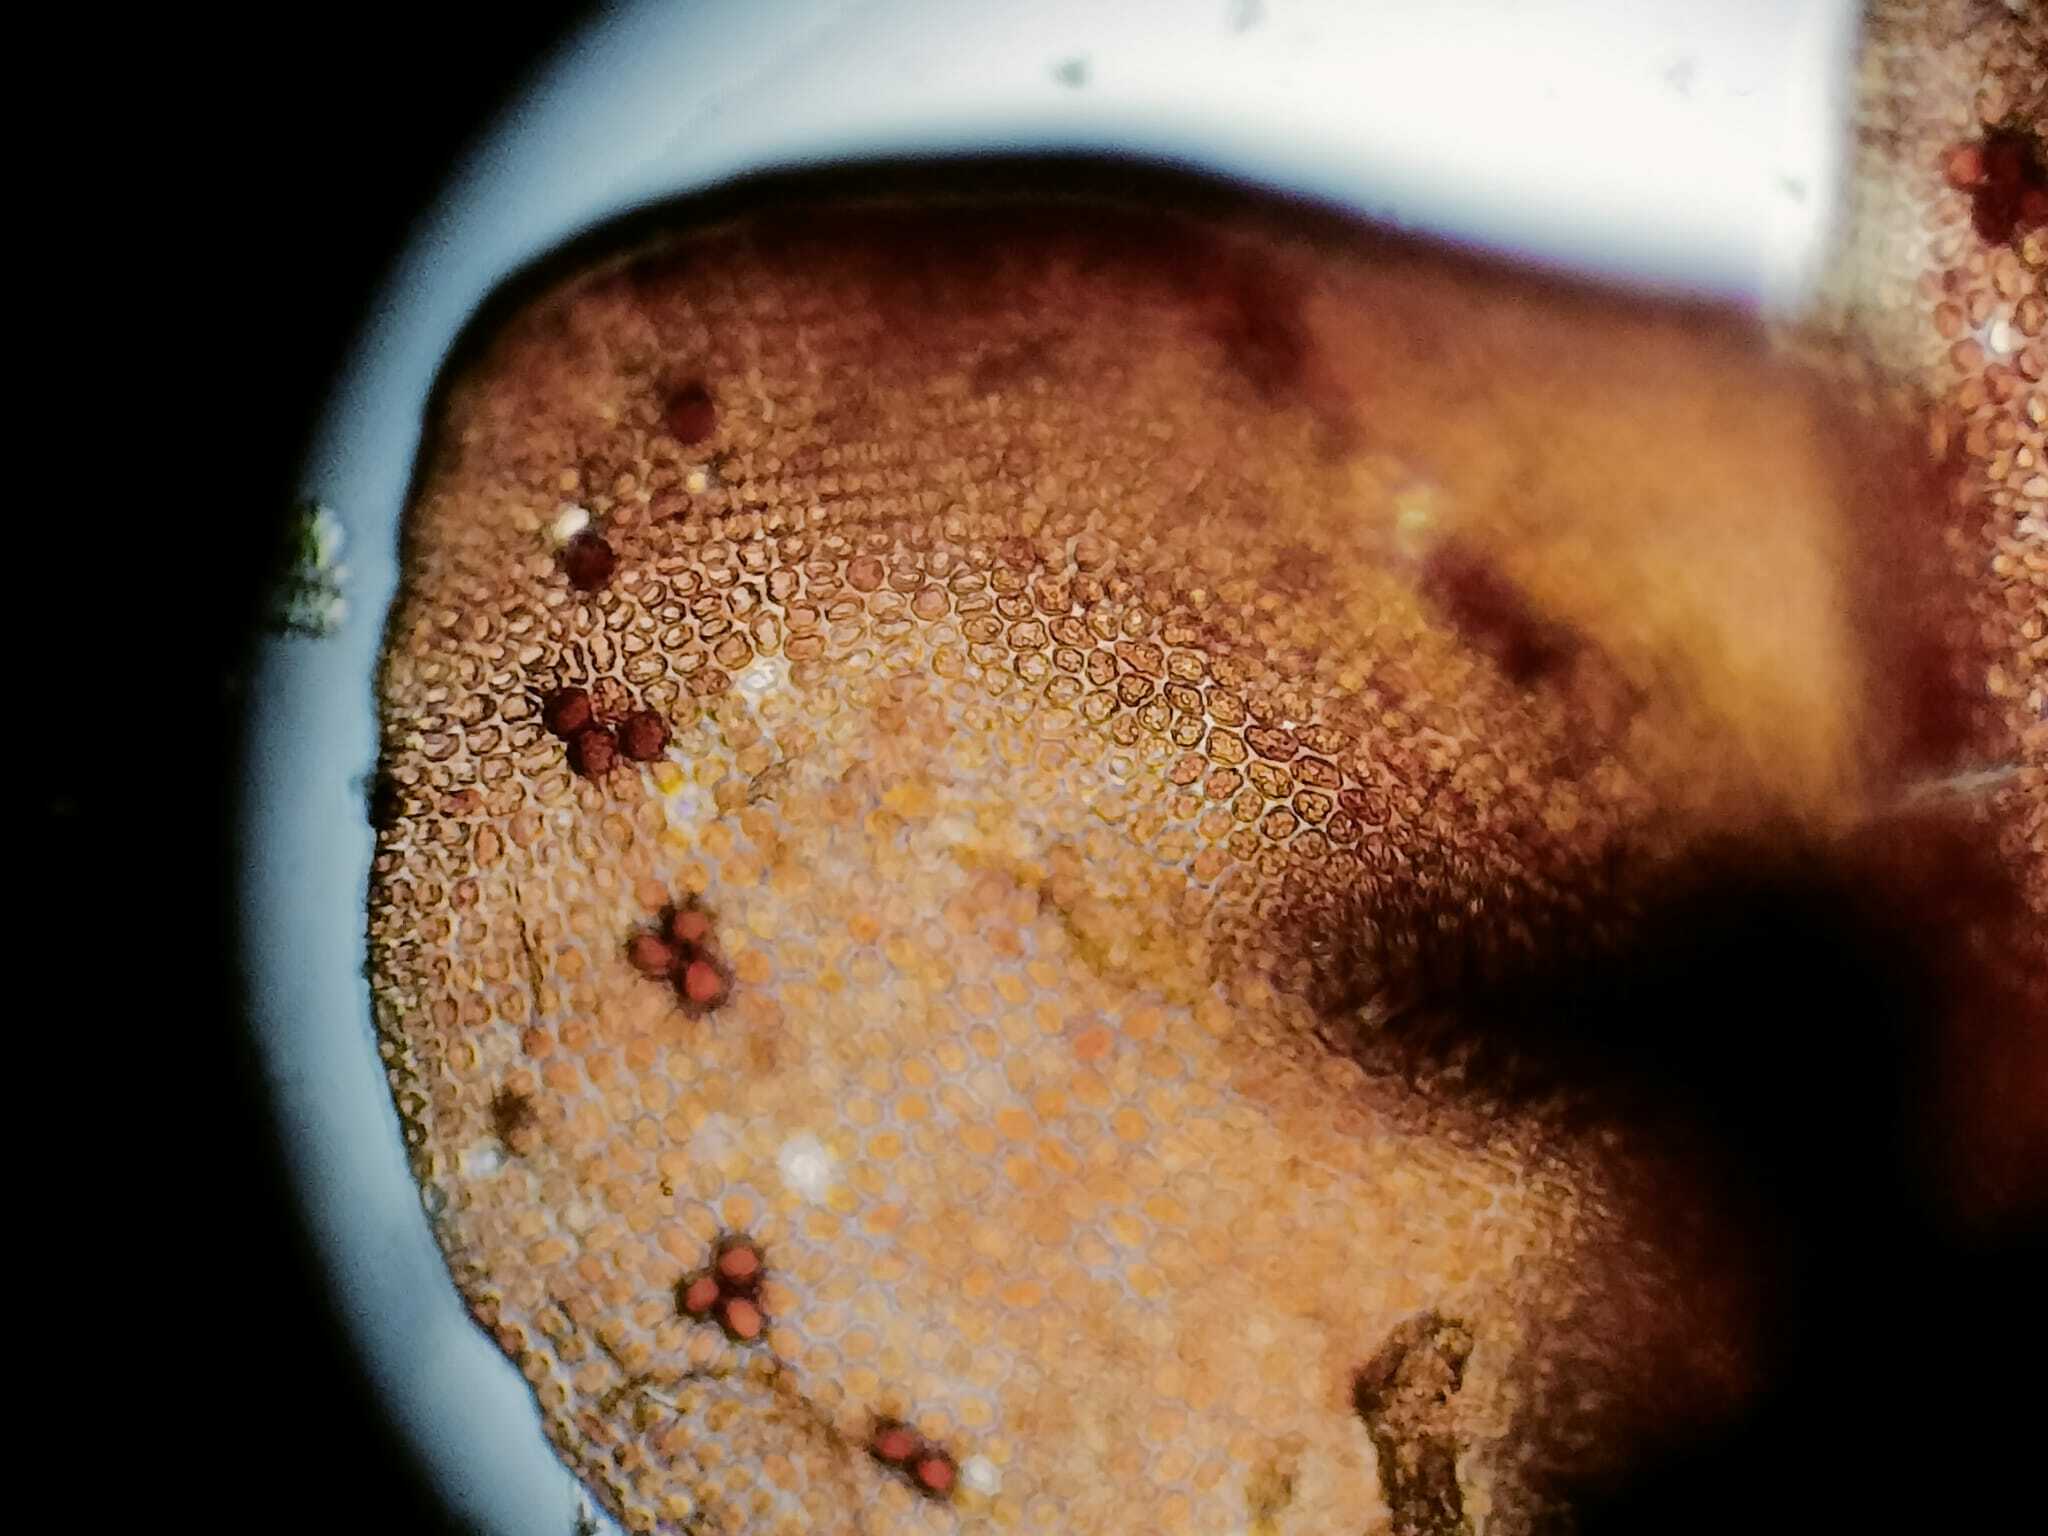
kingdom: Plantae
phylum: Marchantiophyta
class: Jungermanniopsida
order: Porellales
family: Frullaniaceae
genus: Frullania
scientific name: Frullania tamarisci
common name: Tamarisk scalewort
